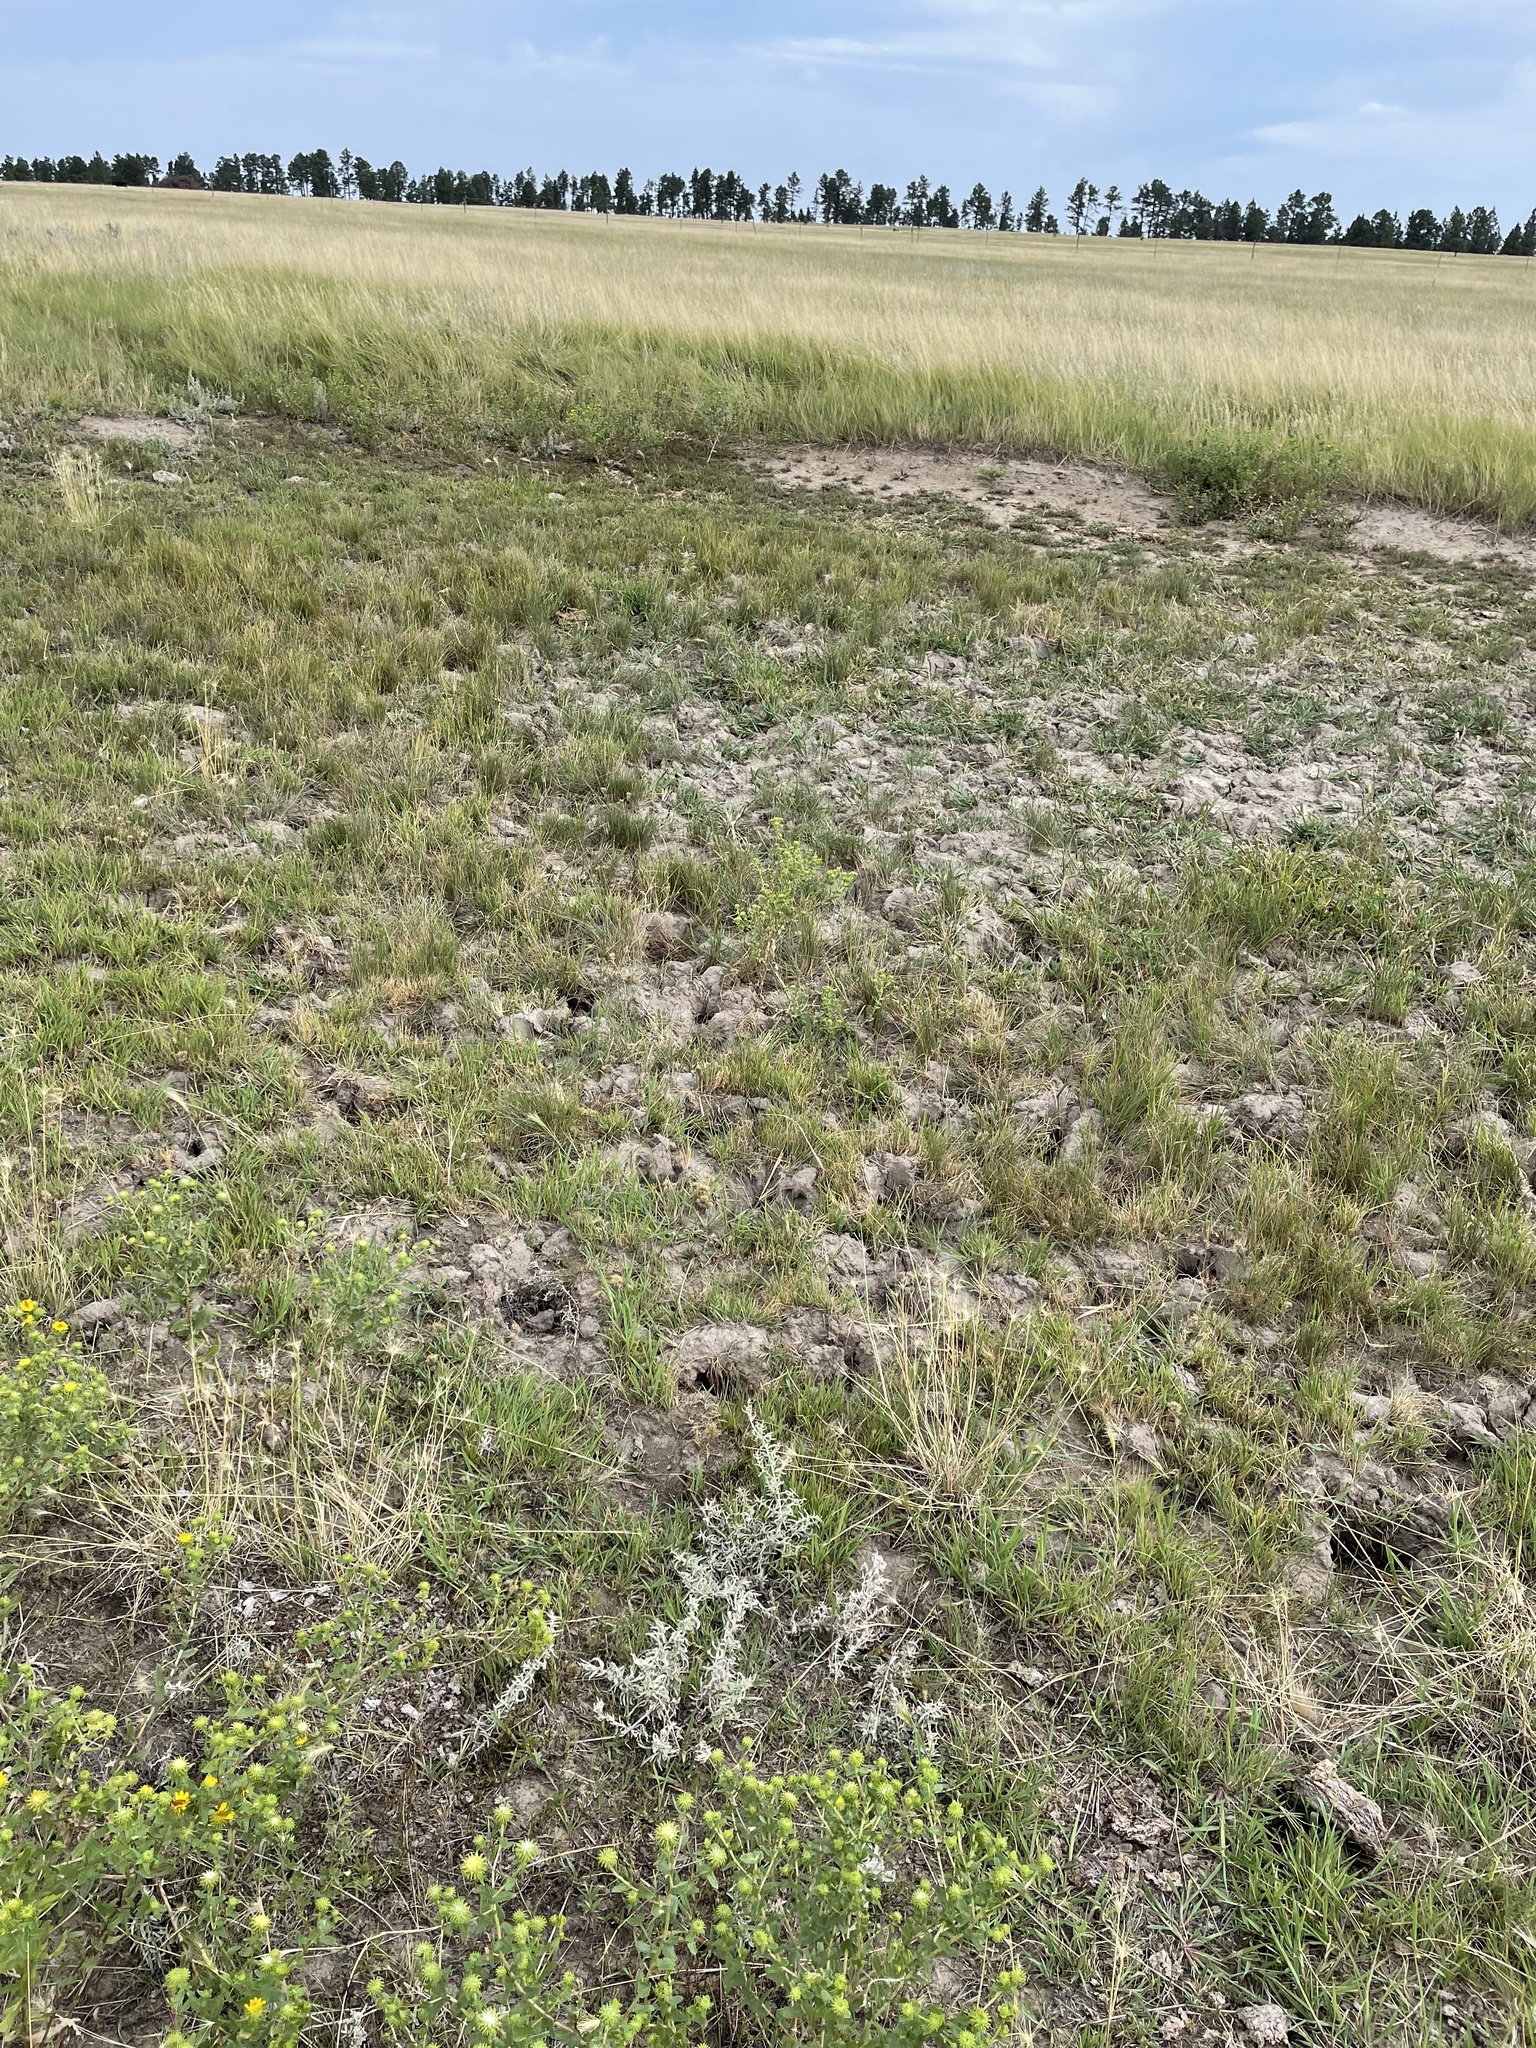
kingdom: Plantae
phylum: Tracheophyta
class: Magnoliopsida
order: Ericales
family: Polemoniaceae
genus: Navarretia
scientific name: Navarretia saximontana
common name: Rocky mountain navarretia
